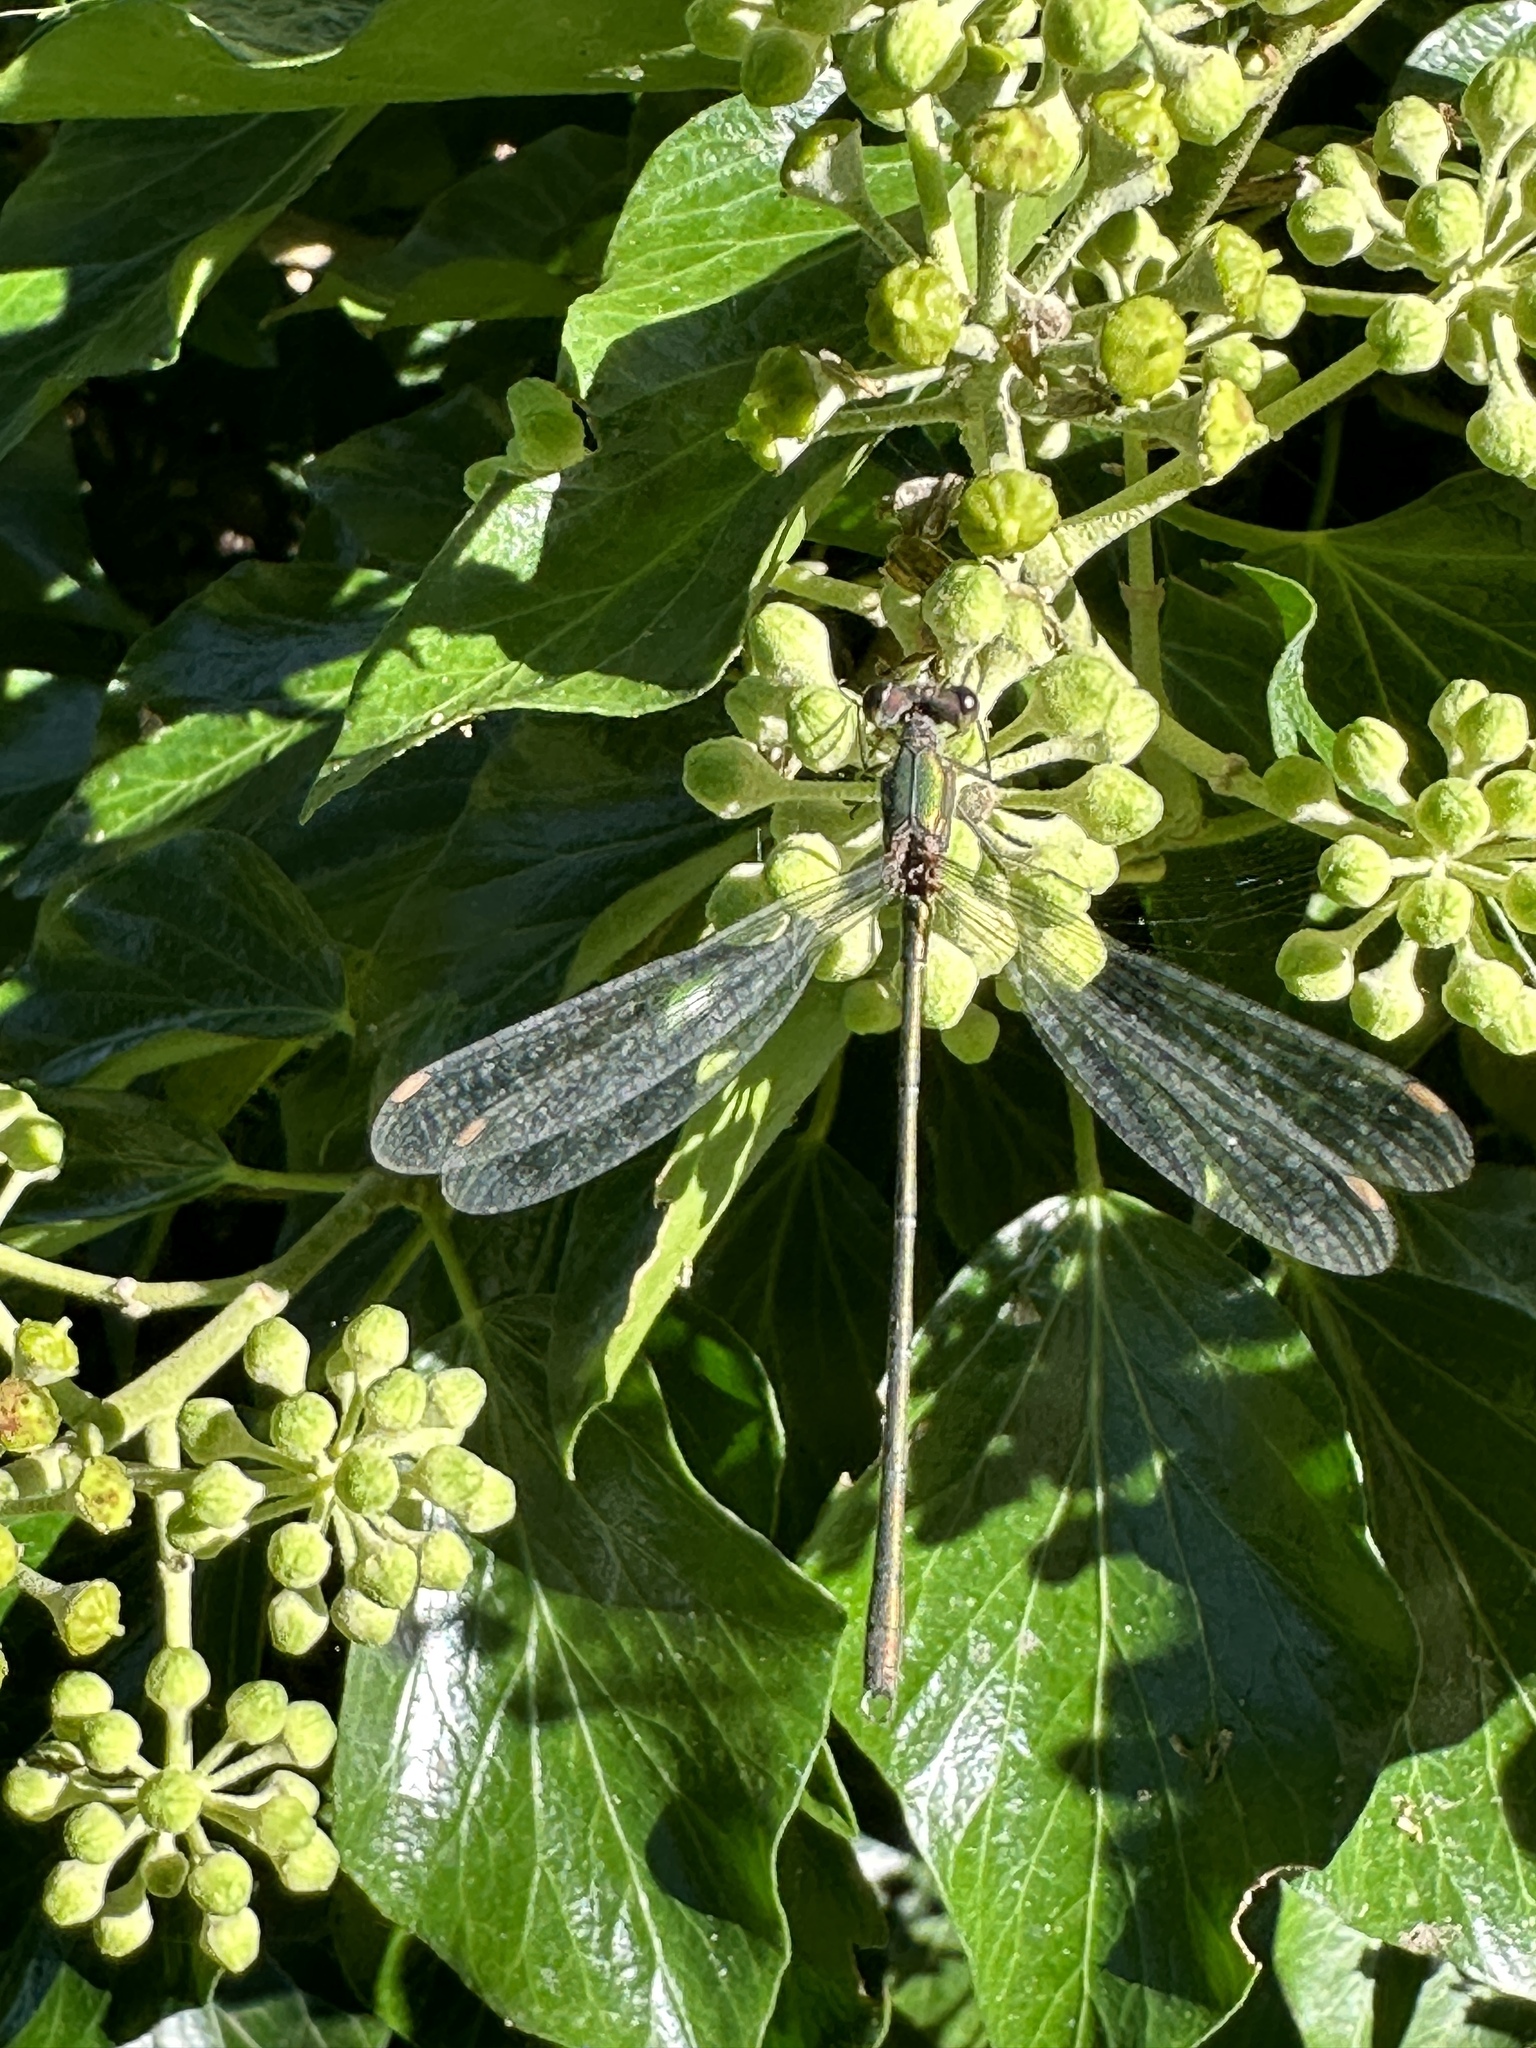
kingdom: Animalia
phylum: Arthropoda
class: Insecta
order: Odonata
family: Lestidae
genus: Chalcolestes
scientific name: Chalcolestes viridis
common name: Green emerald damselfly
